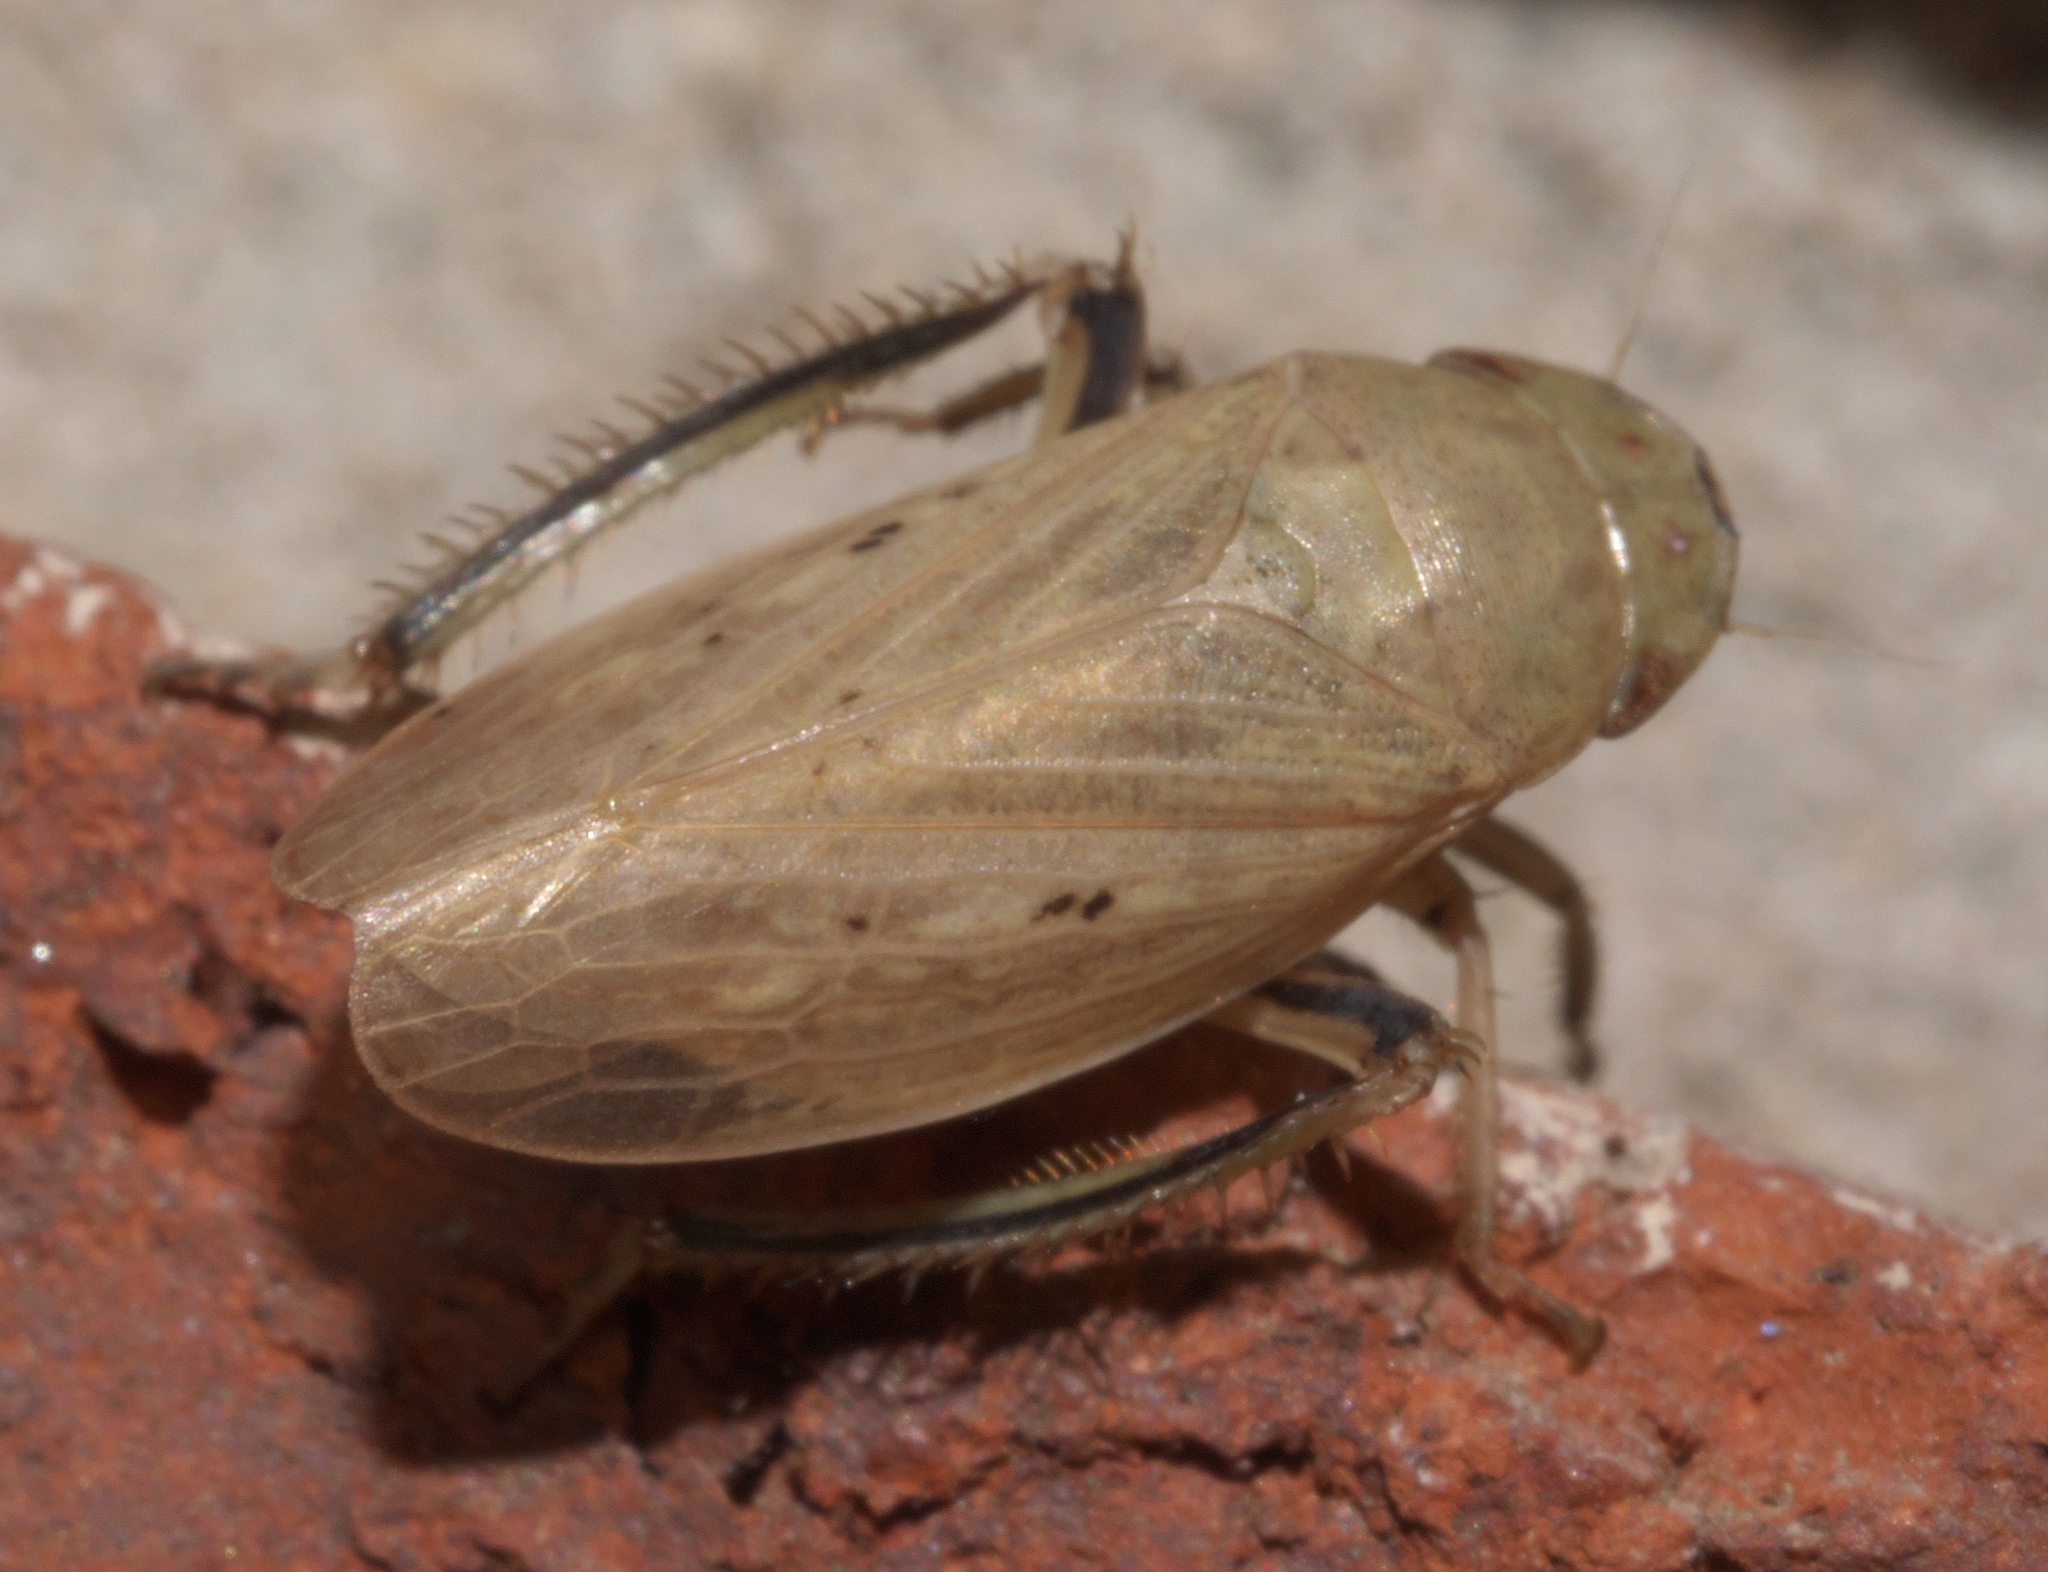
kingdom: Animalia
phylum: Arthropoda
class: Insecta
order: Hemiptera
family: Cicadellidae
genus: Negosiana
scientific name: Negosiana dualis
